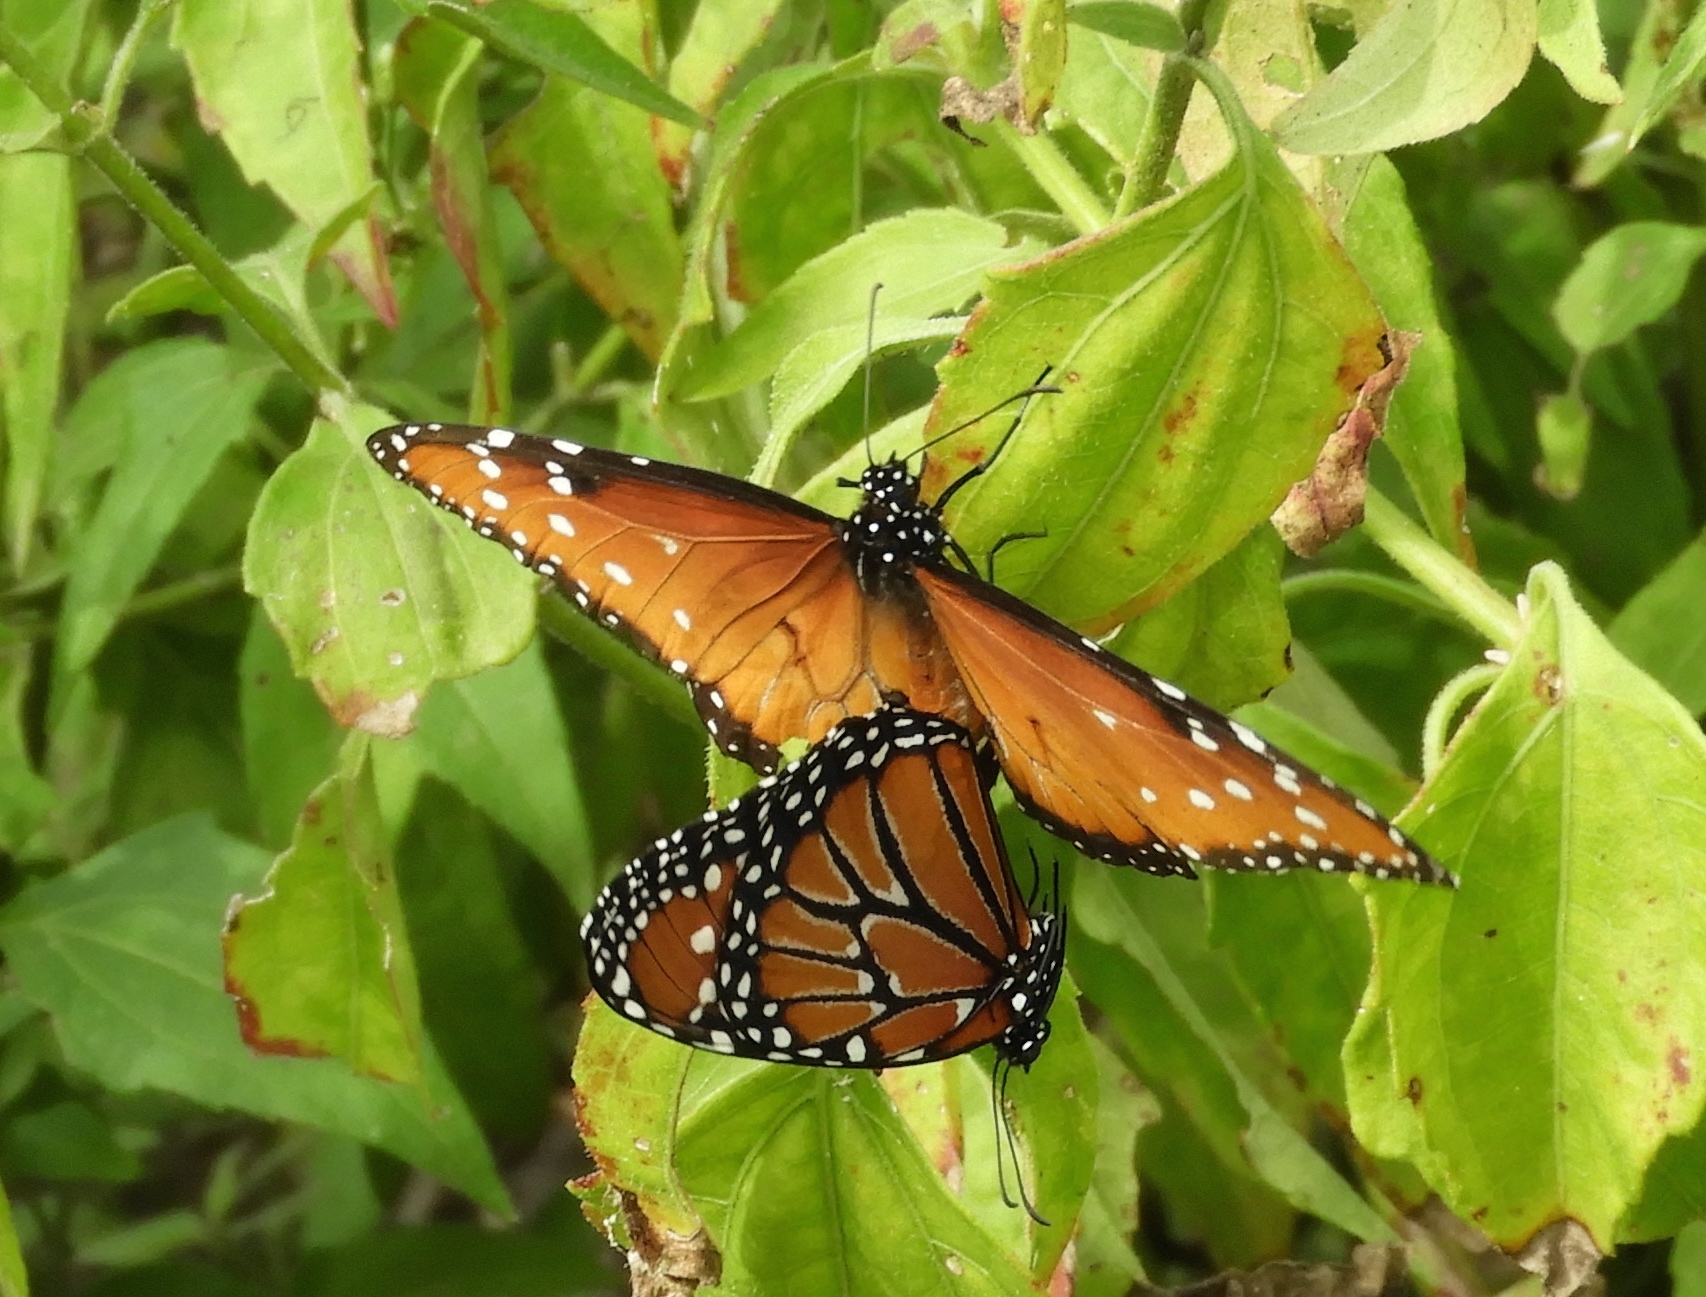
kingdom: Animalia
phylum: Arthropoda
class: Insecta
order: Lepidoptera
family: Nymphalidae
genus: Danaus
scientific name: Danaus gilippus
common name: Queen
